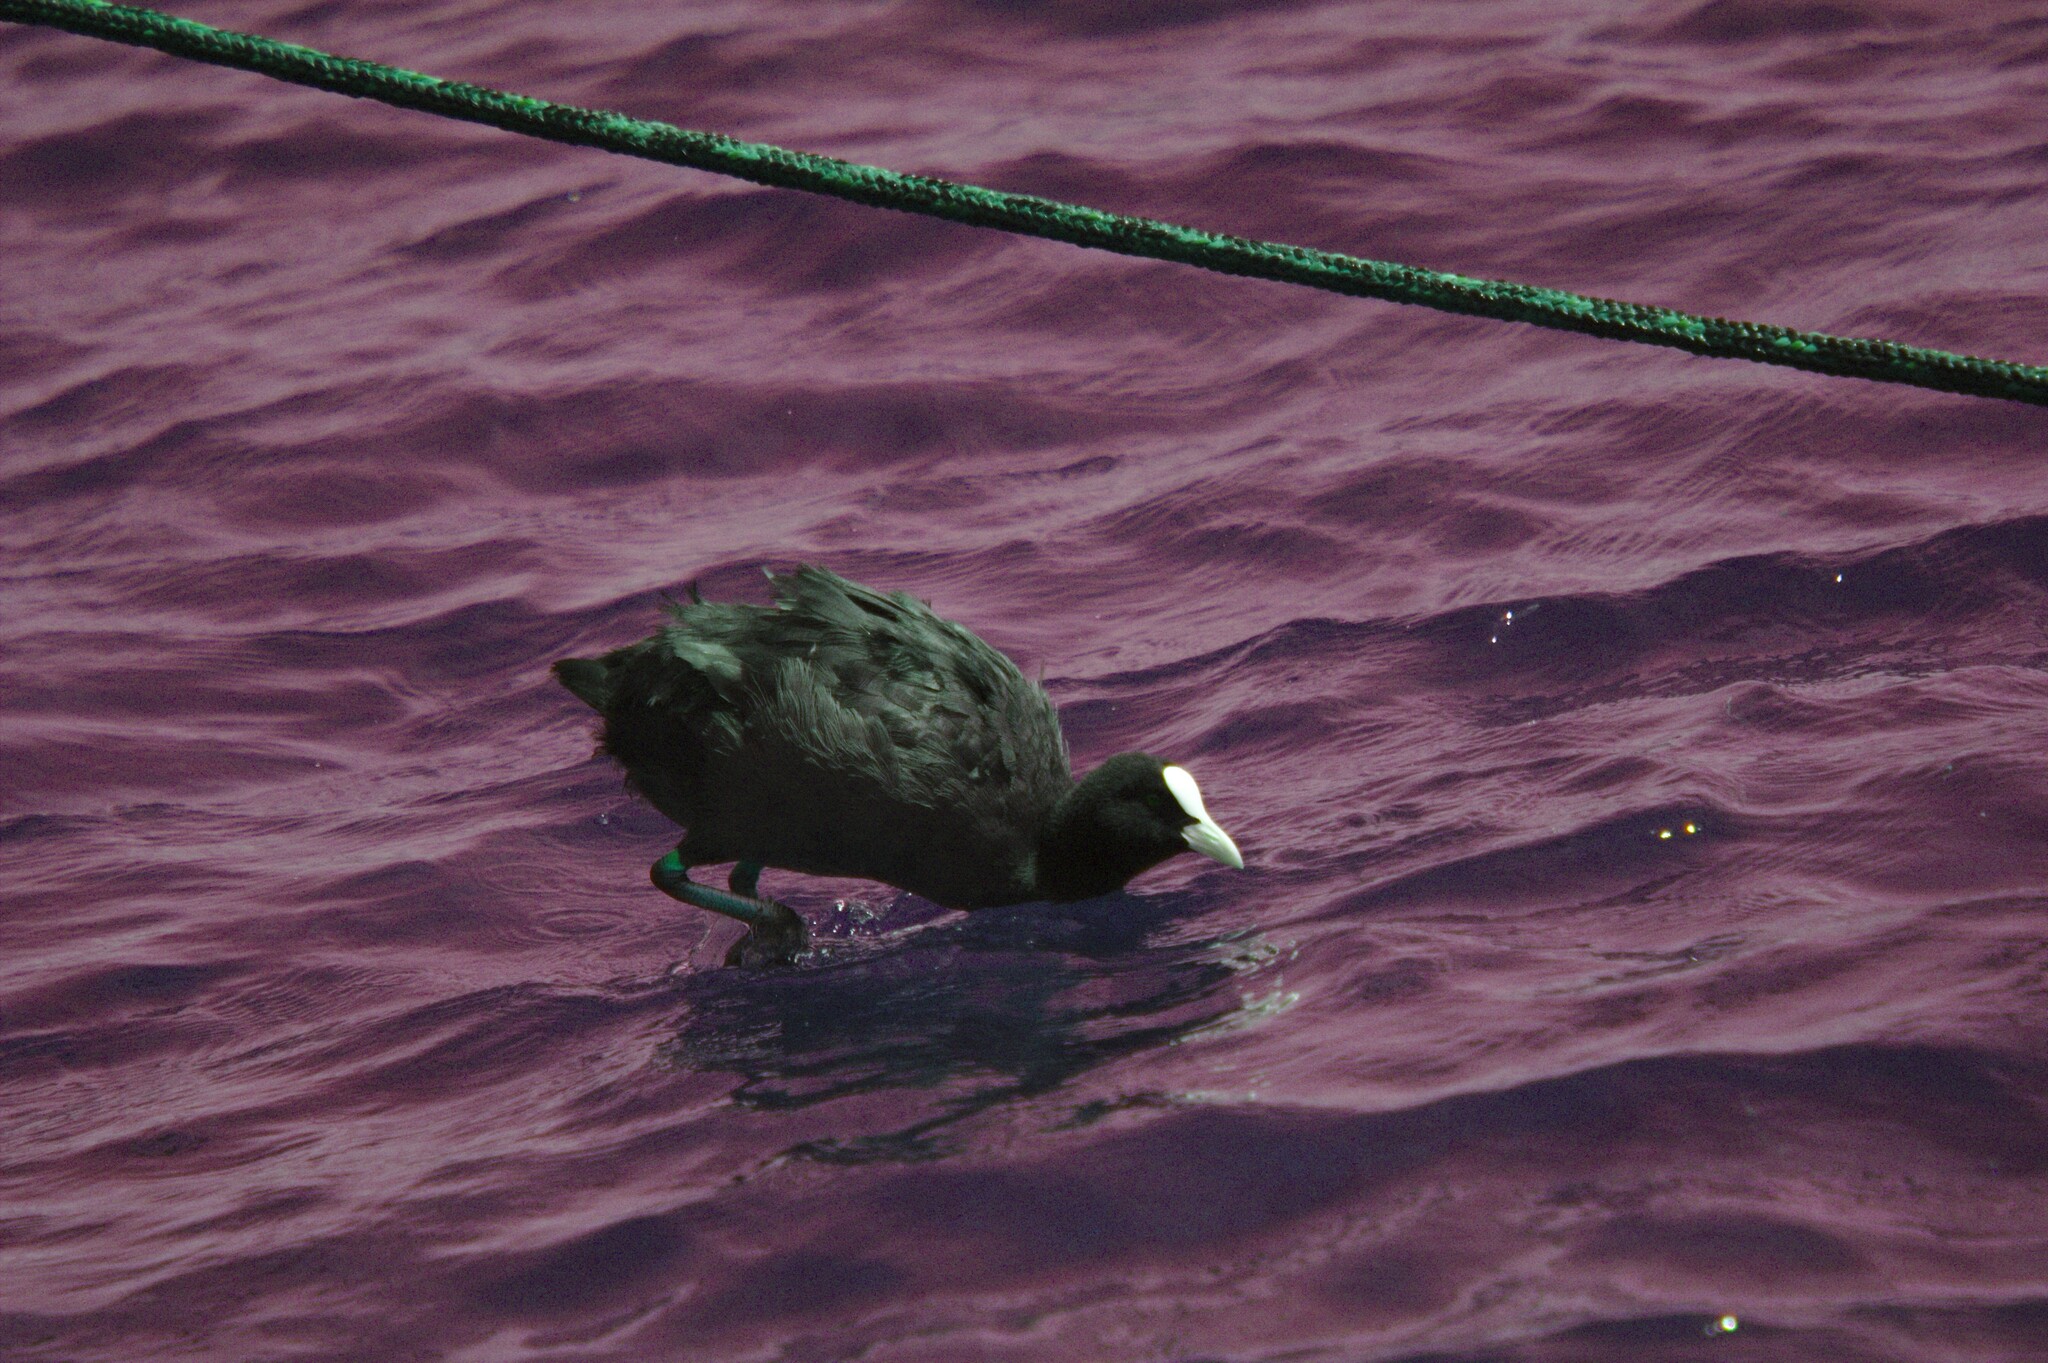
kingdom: Animalia
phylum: Chordata
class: Aves
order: Gruiformes
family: Rallidae
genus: Fulica
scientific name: Fulica atra
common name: Eurasian coot
